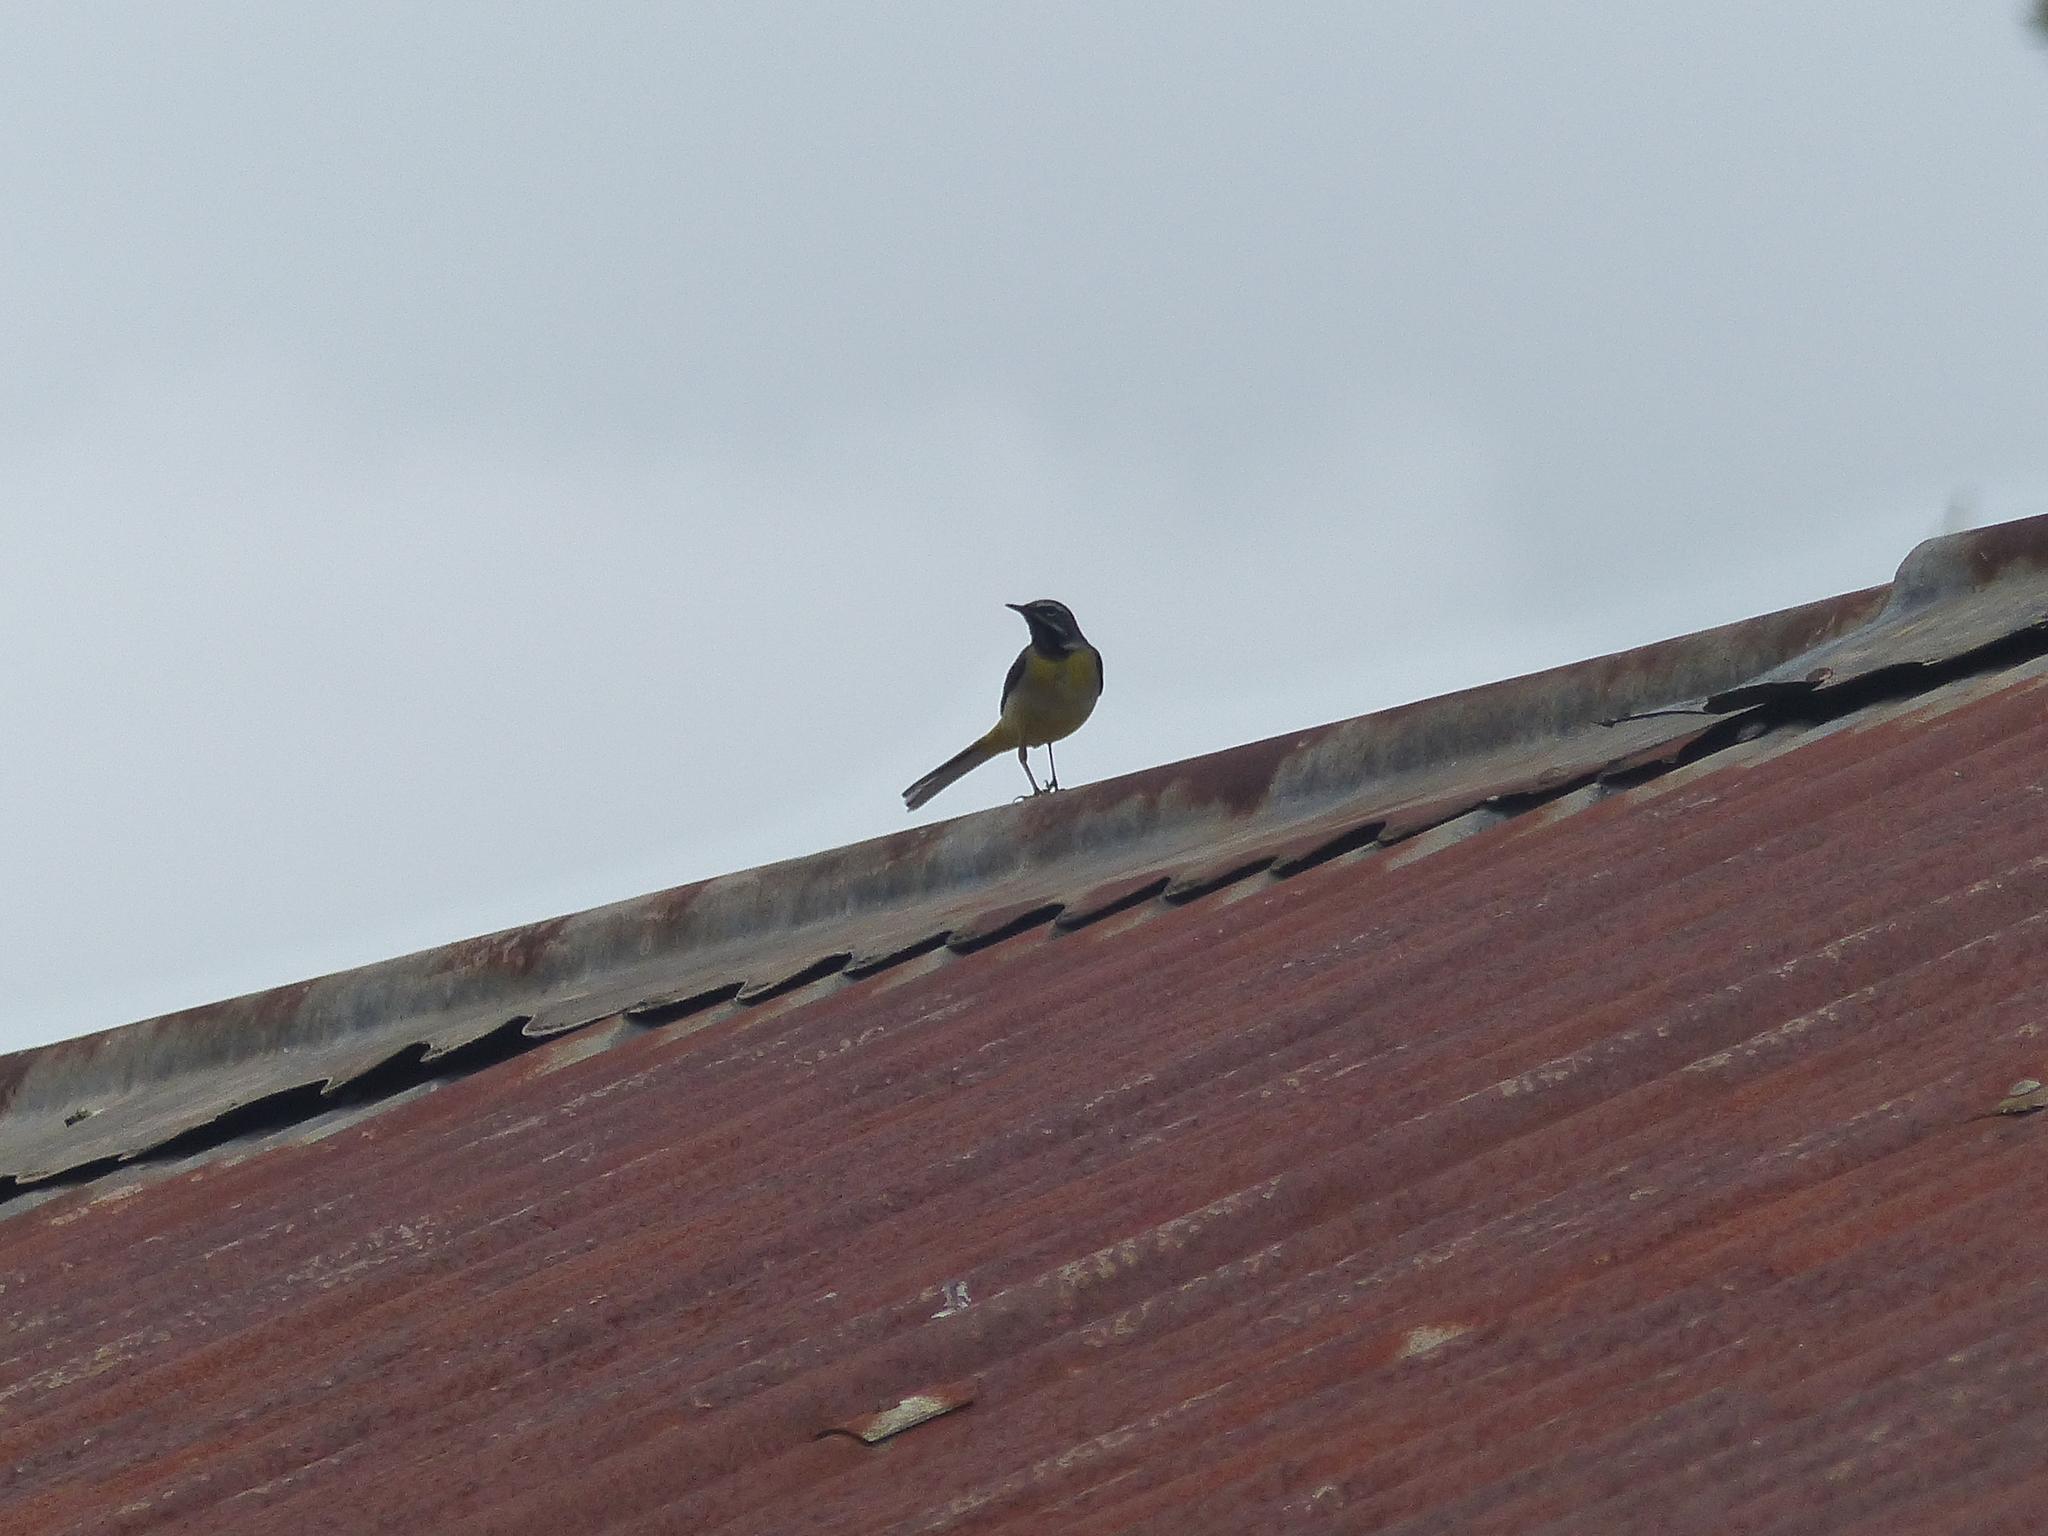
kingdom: Animalia
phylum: Chordata
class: Aves
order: Passeriformes
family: Motacillidae
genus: Motacilla
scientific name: Motacilla cinerea
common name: Grey wagtail
